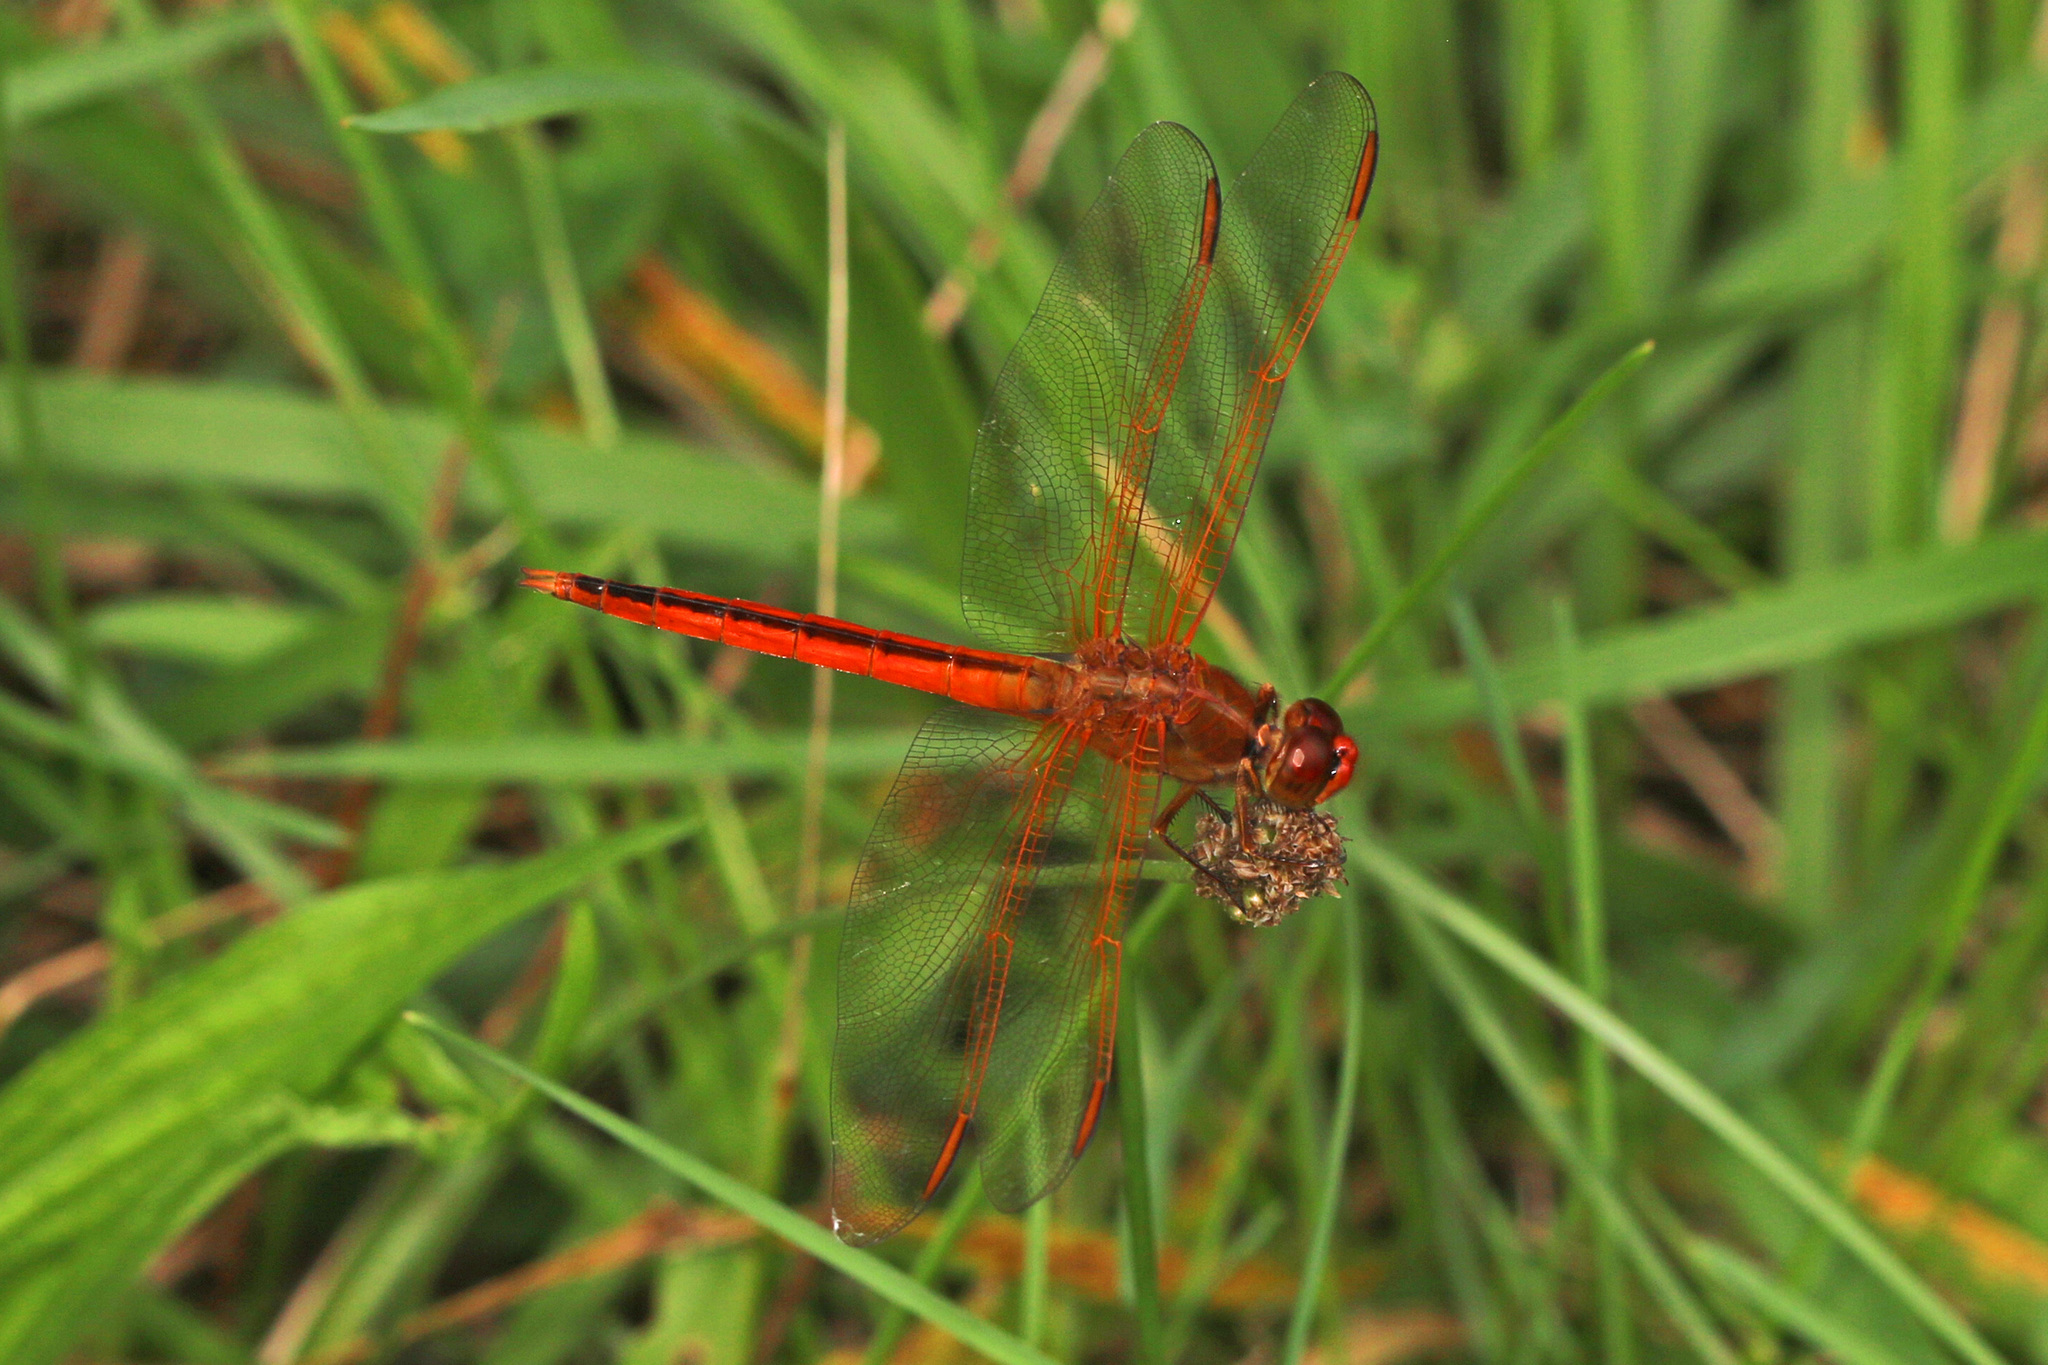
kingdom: Animalia
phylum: Arthropoda
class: Insecta
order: Odonata
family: Libellulidae
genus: Libellula
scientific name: Libellula needhami
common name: Needham's skimmer
